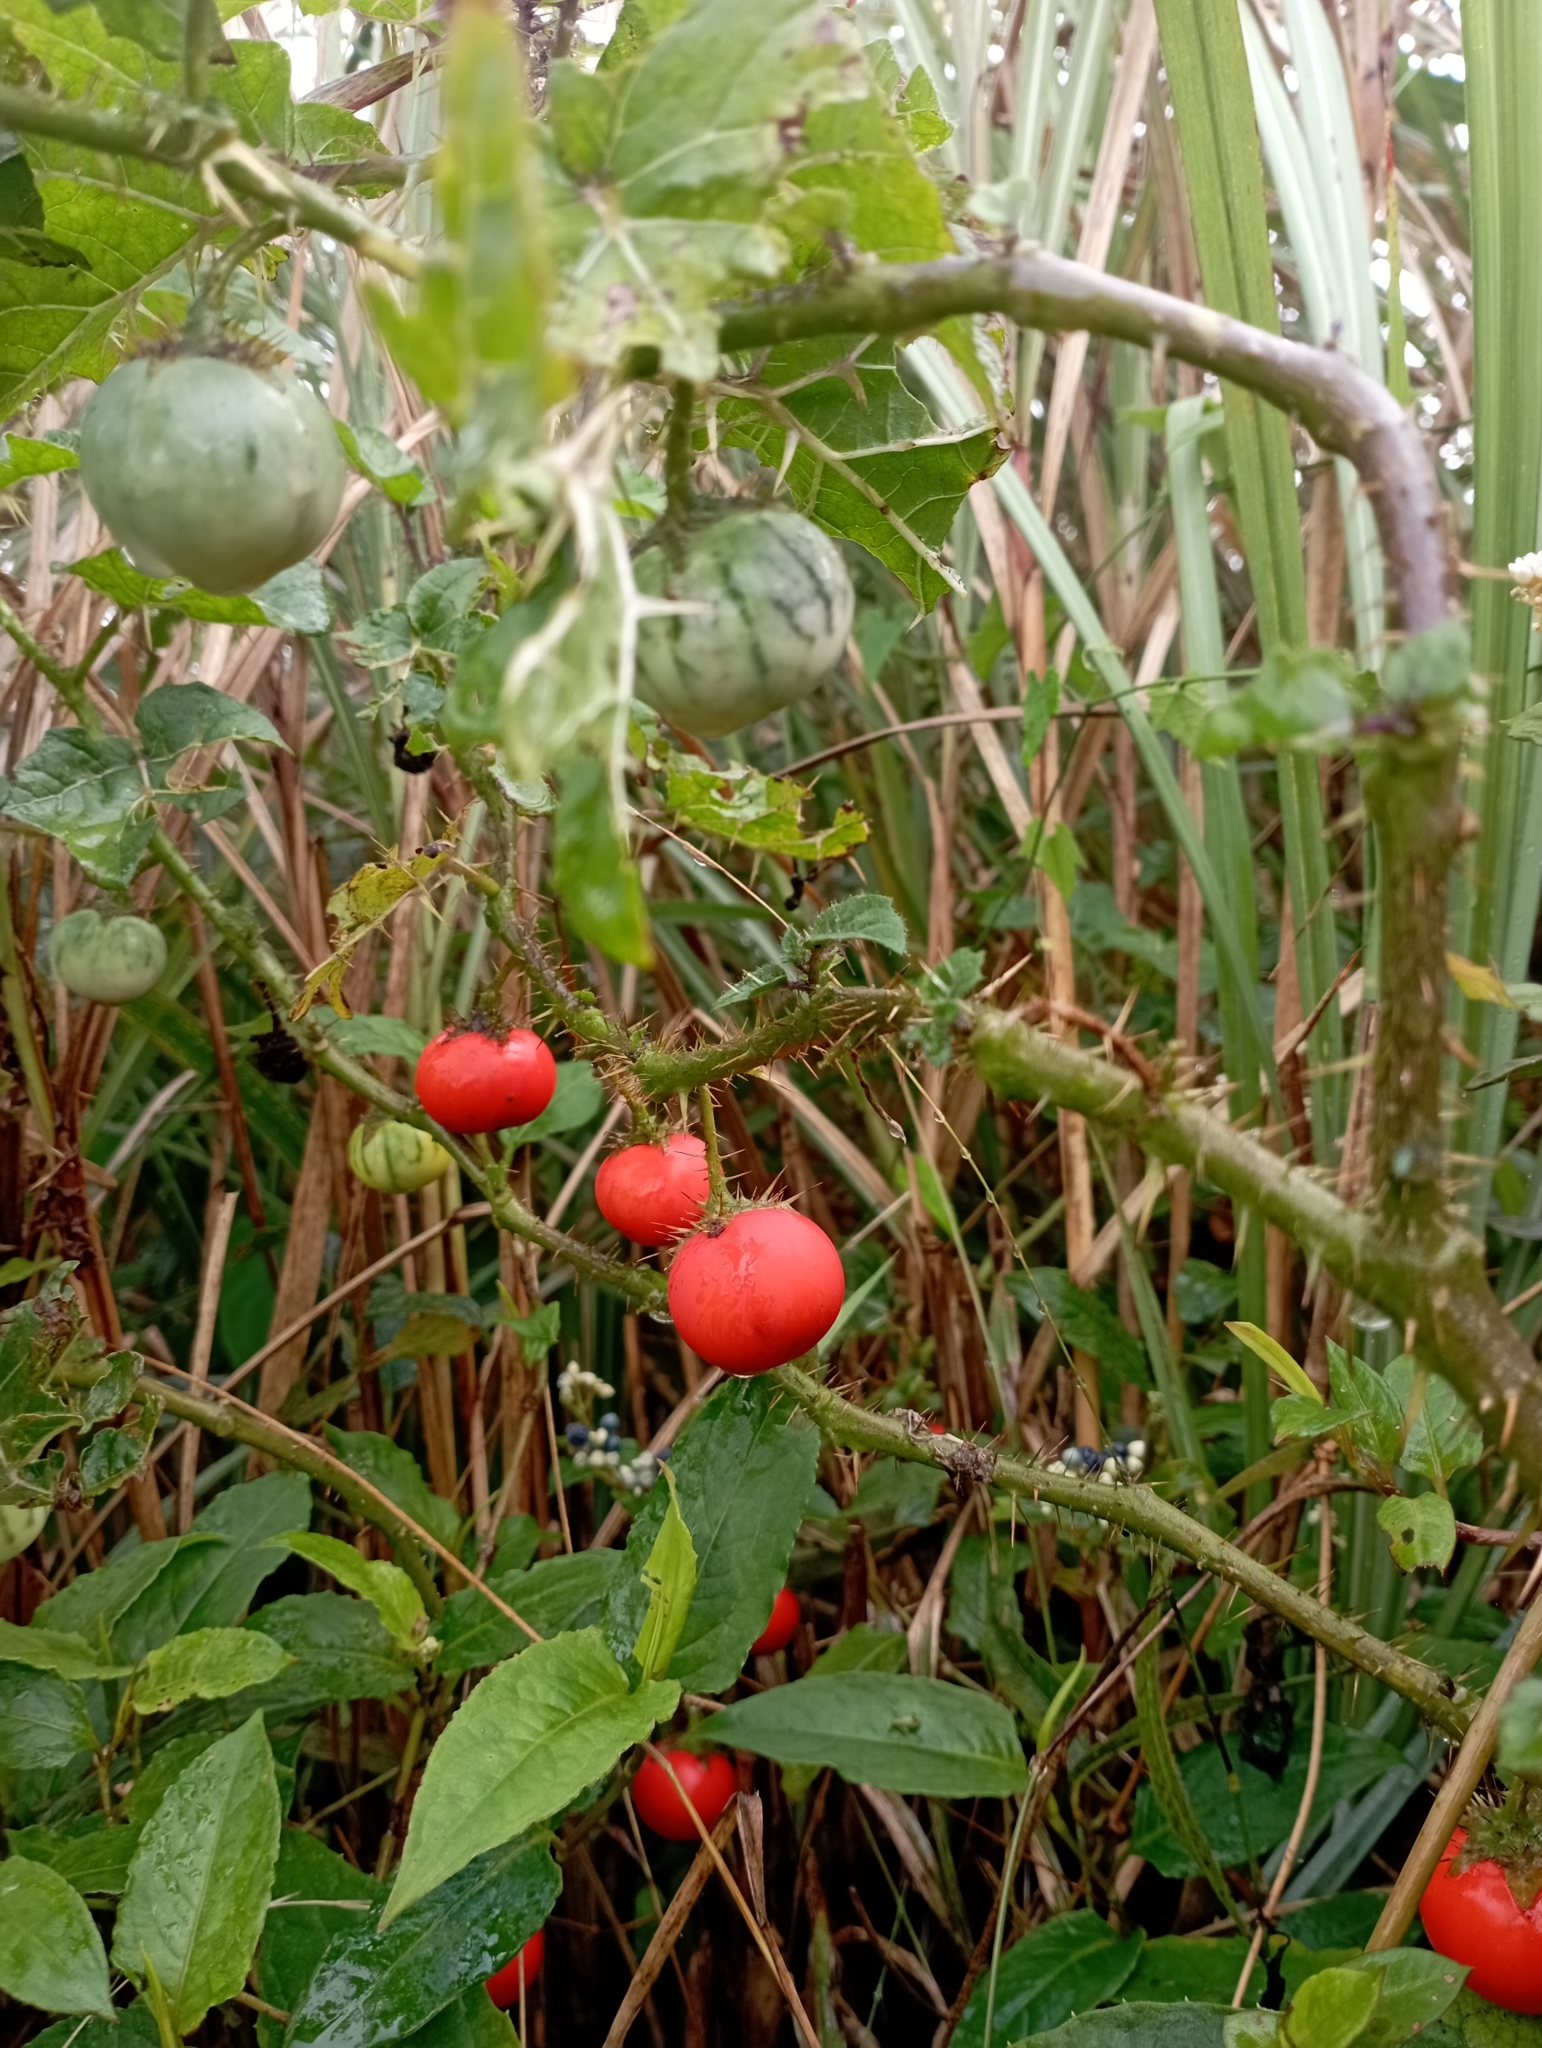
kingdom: Plantae
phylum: Tracheophyta
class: Magnoliopsida
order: Solanales
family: Solanaceae
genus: Solanum
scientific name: Solanum capsicoides
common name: Cockroach berry
